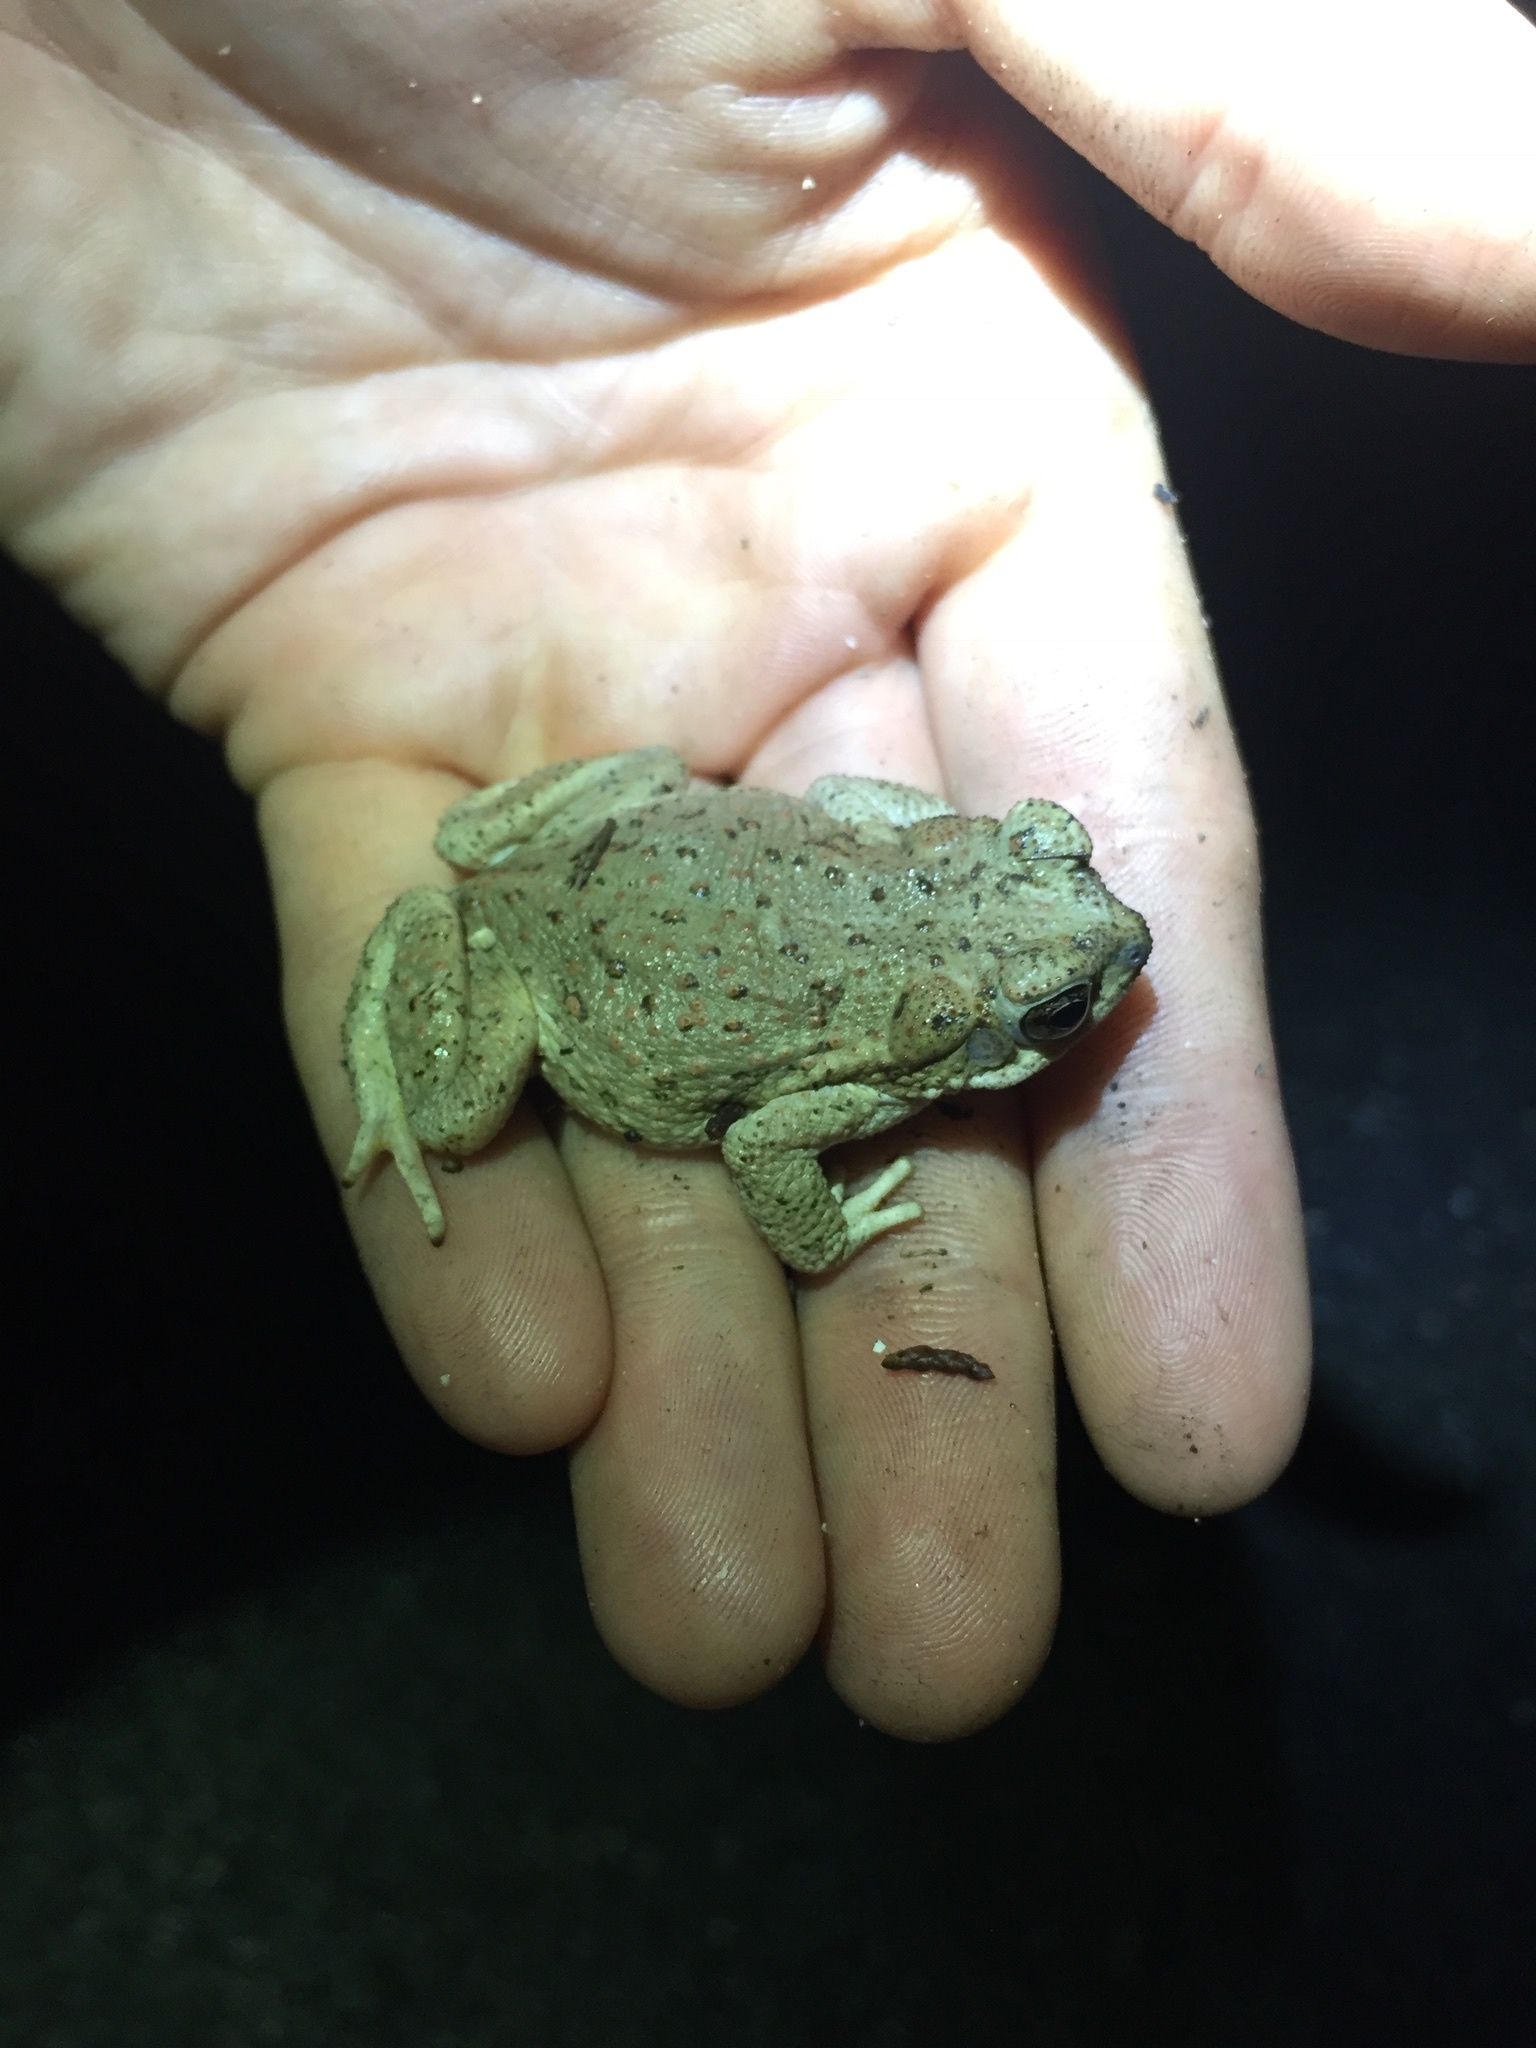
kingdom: Animalia
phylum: Chordata
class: Amphibia
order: Anura
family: Bufonidae
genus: Anaxyrus
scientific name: Anaxyrus punctatus
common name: Red-spotted toad
